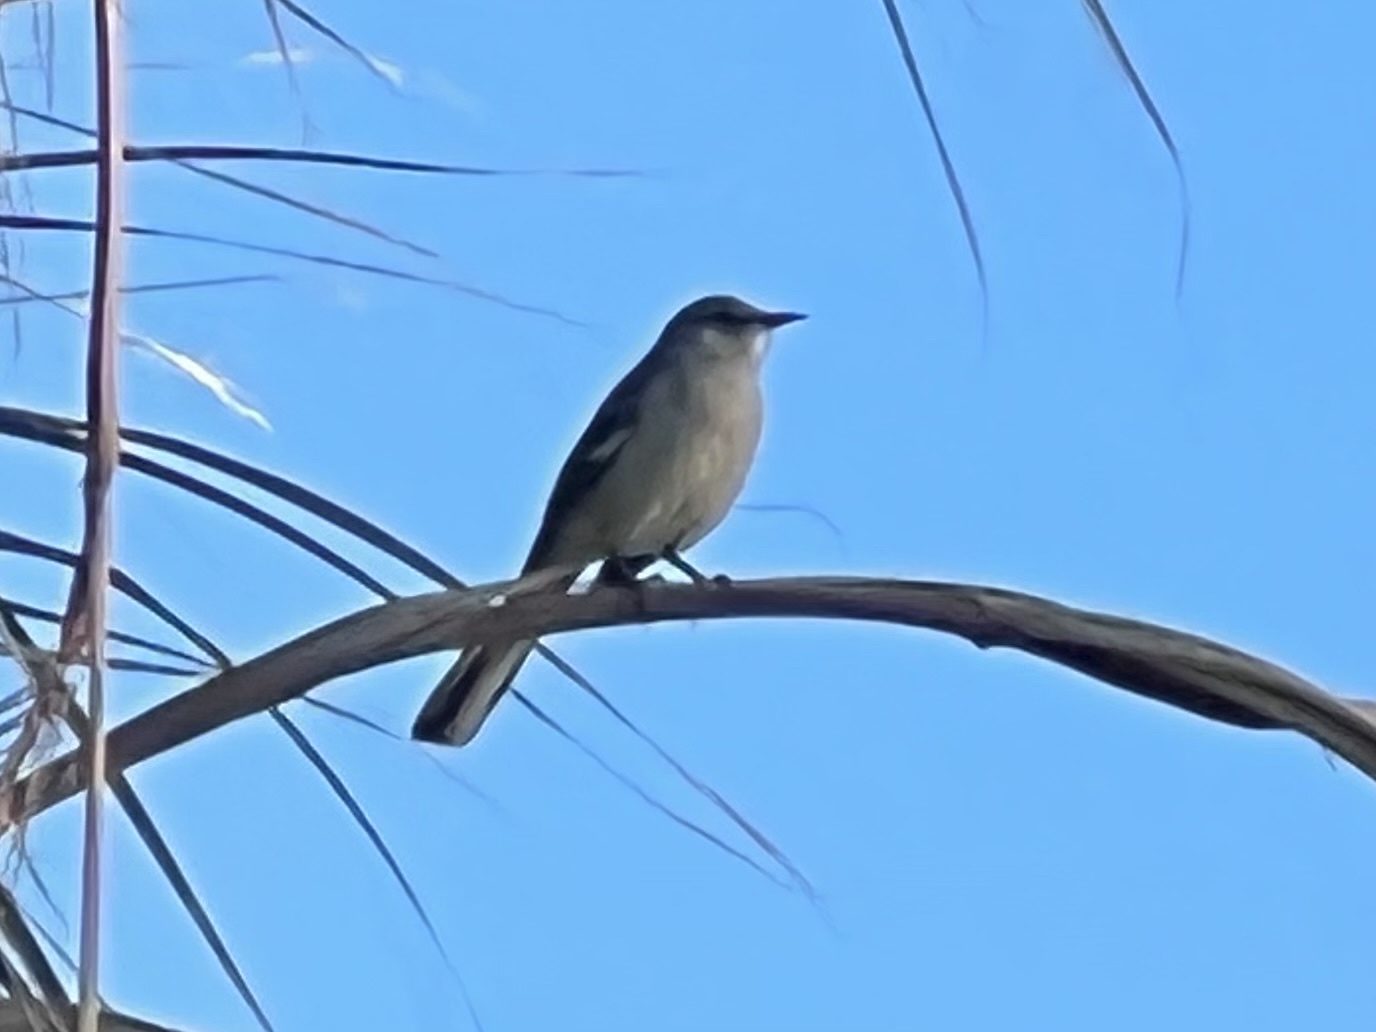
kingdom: Animalia
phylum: Chordata
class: Aves
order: Passeriformes
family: Mimidae
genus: Mimus
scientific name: Mimus polyglottos
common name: Northern mockingbird
